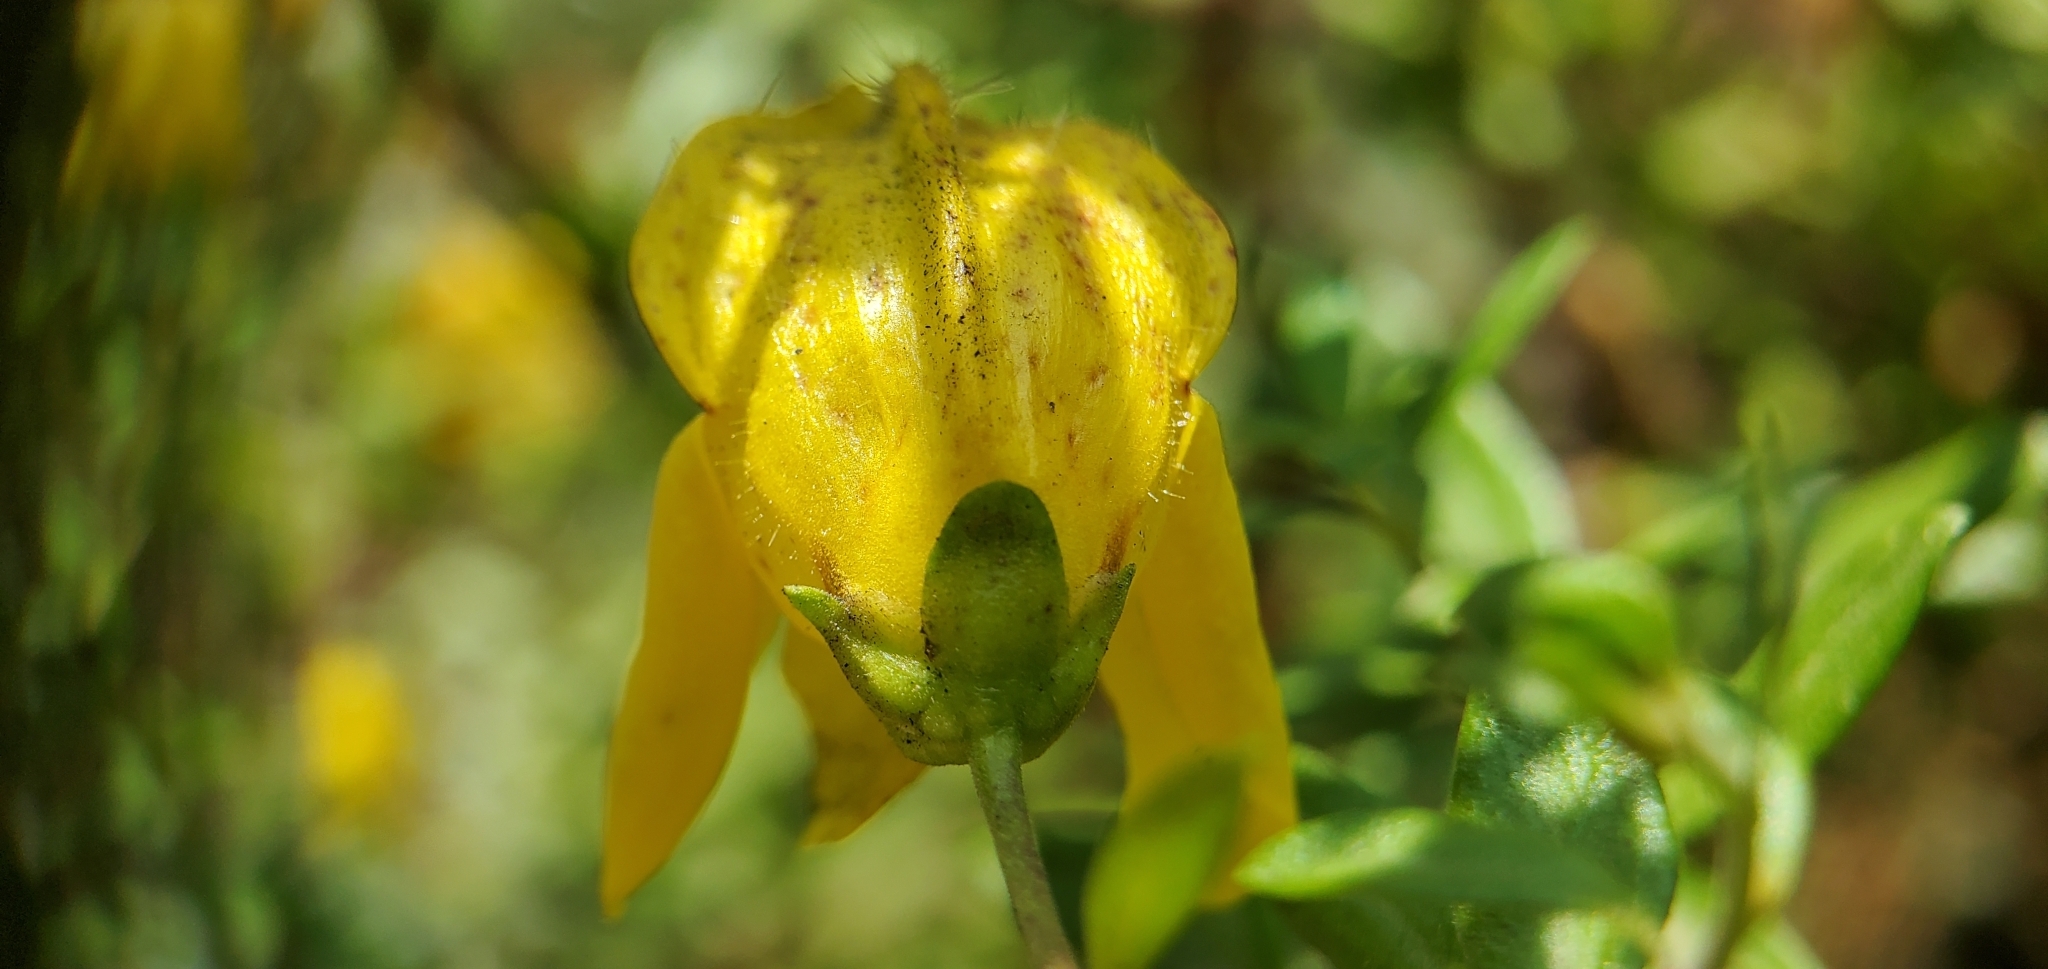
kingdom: Plantae
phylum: Tracheophyta
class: Magnoliopsida
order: Lamiales
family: Plantaginaceae
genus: Keckiella
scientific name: Keckiella antirrhinoides
